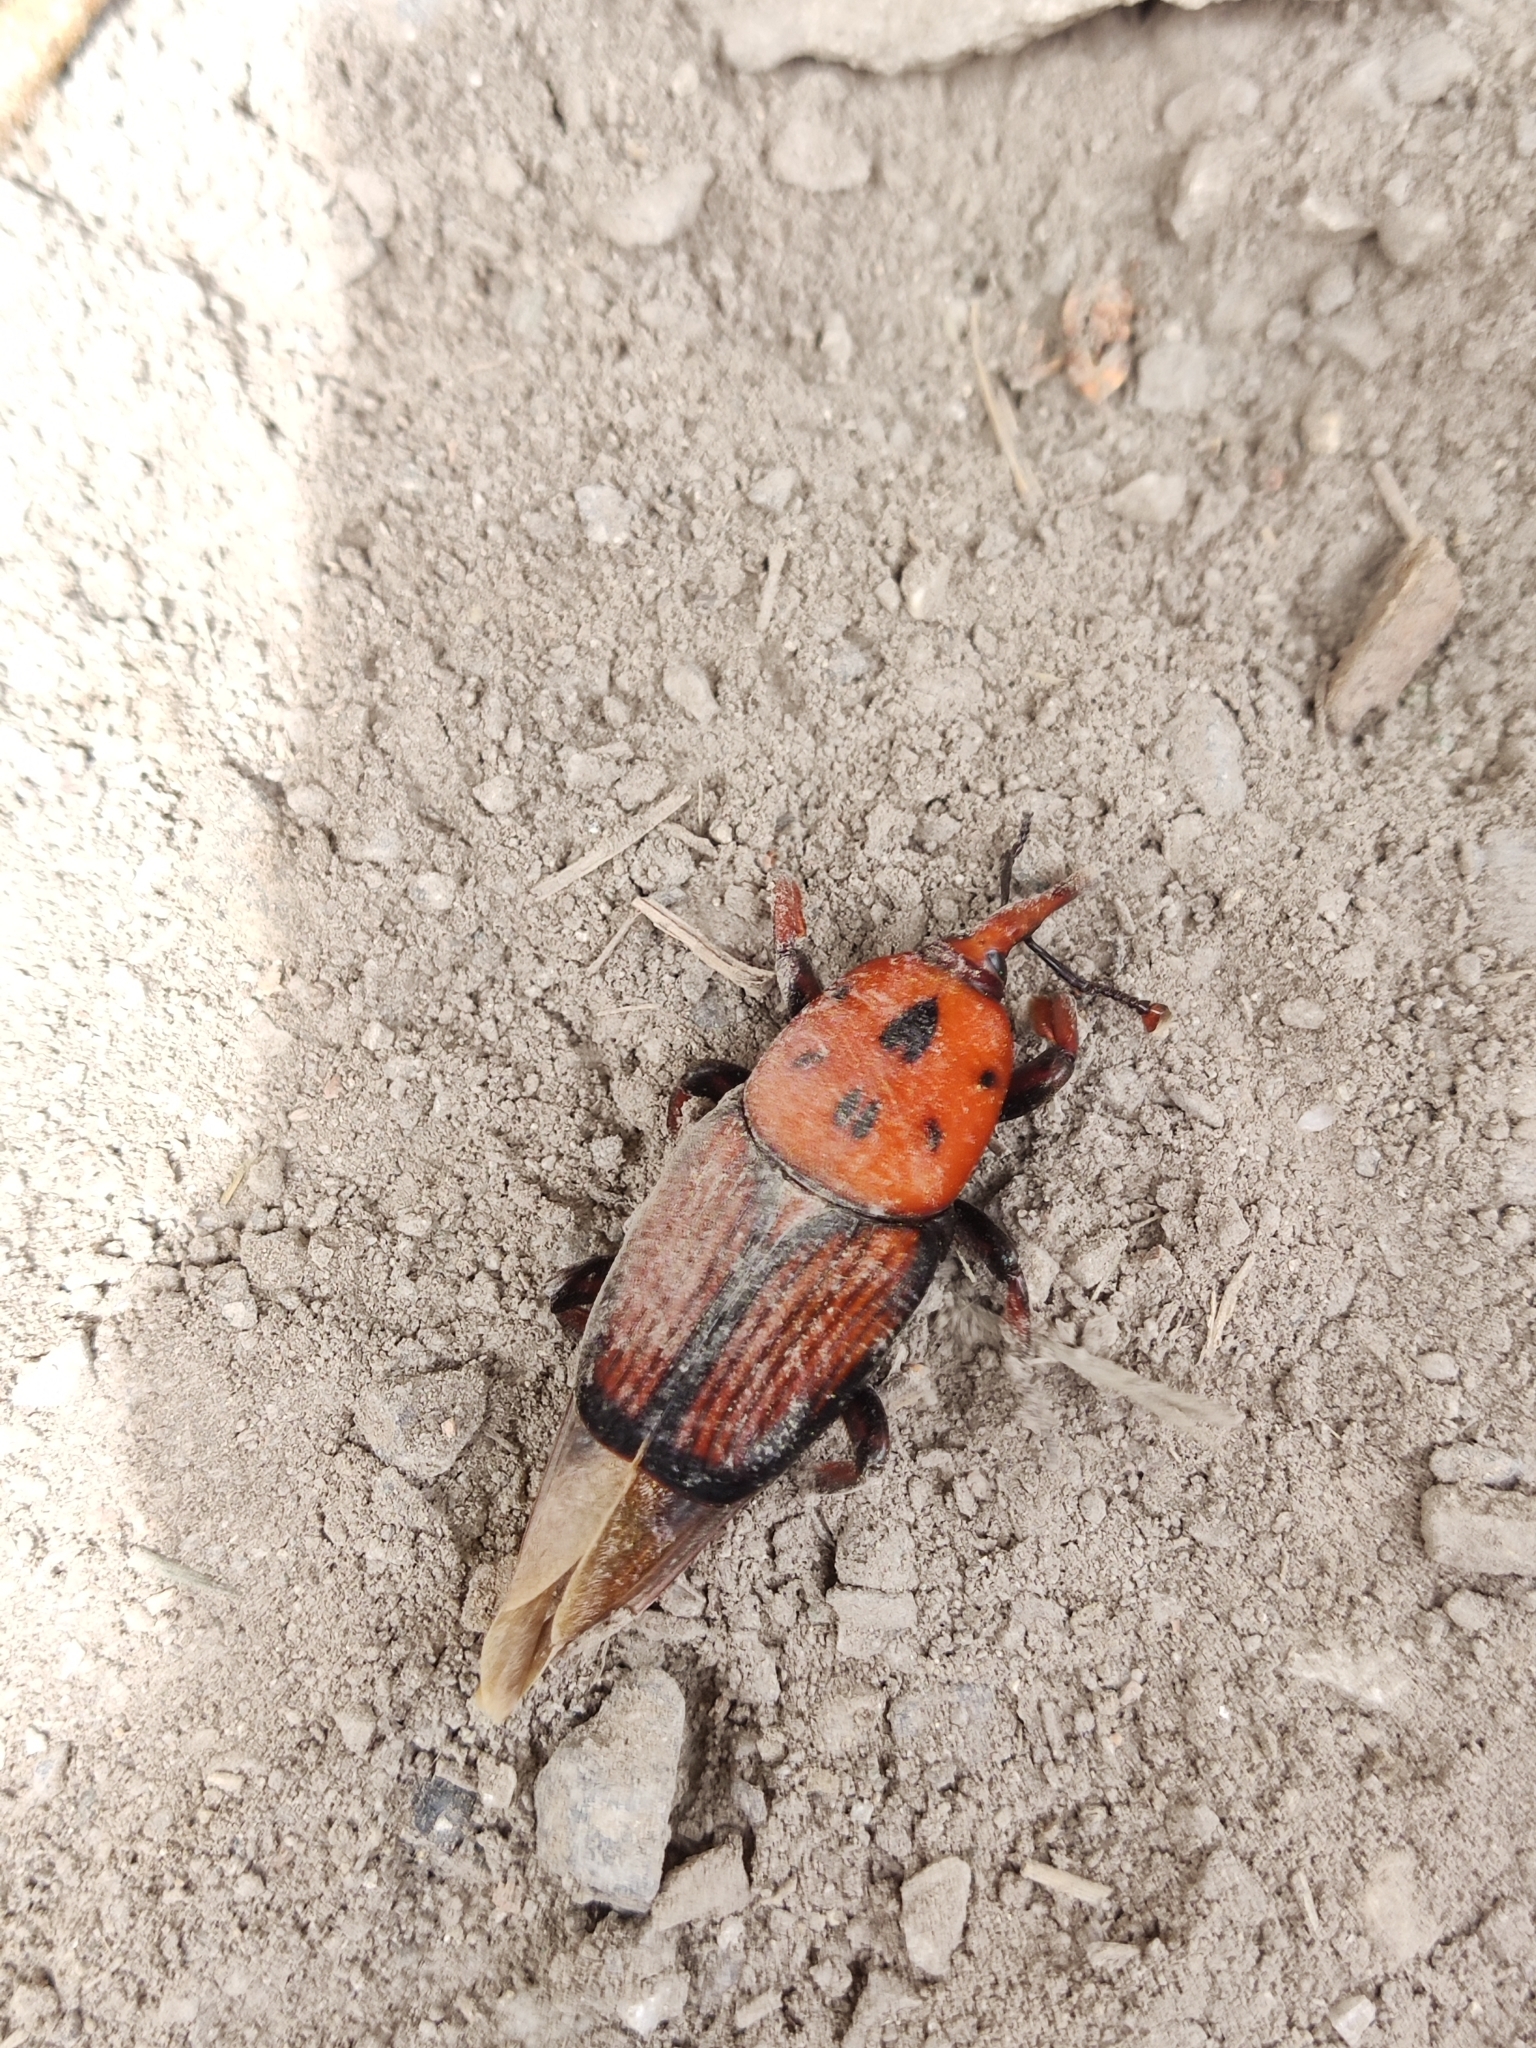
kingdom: Animalia
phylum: Arthropoda
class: Insecta
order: Coleoptera
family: Dryophthoridae
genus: Rhynchophorus
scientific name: Rhynchophorus ferrugineus
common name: Red palm weevil
